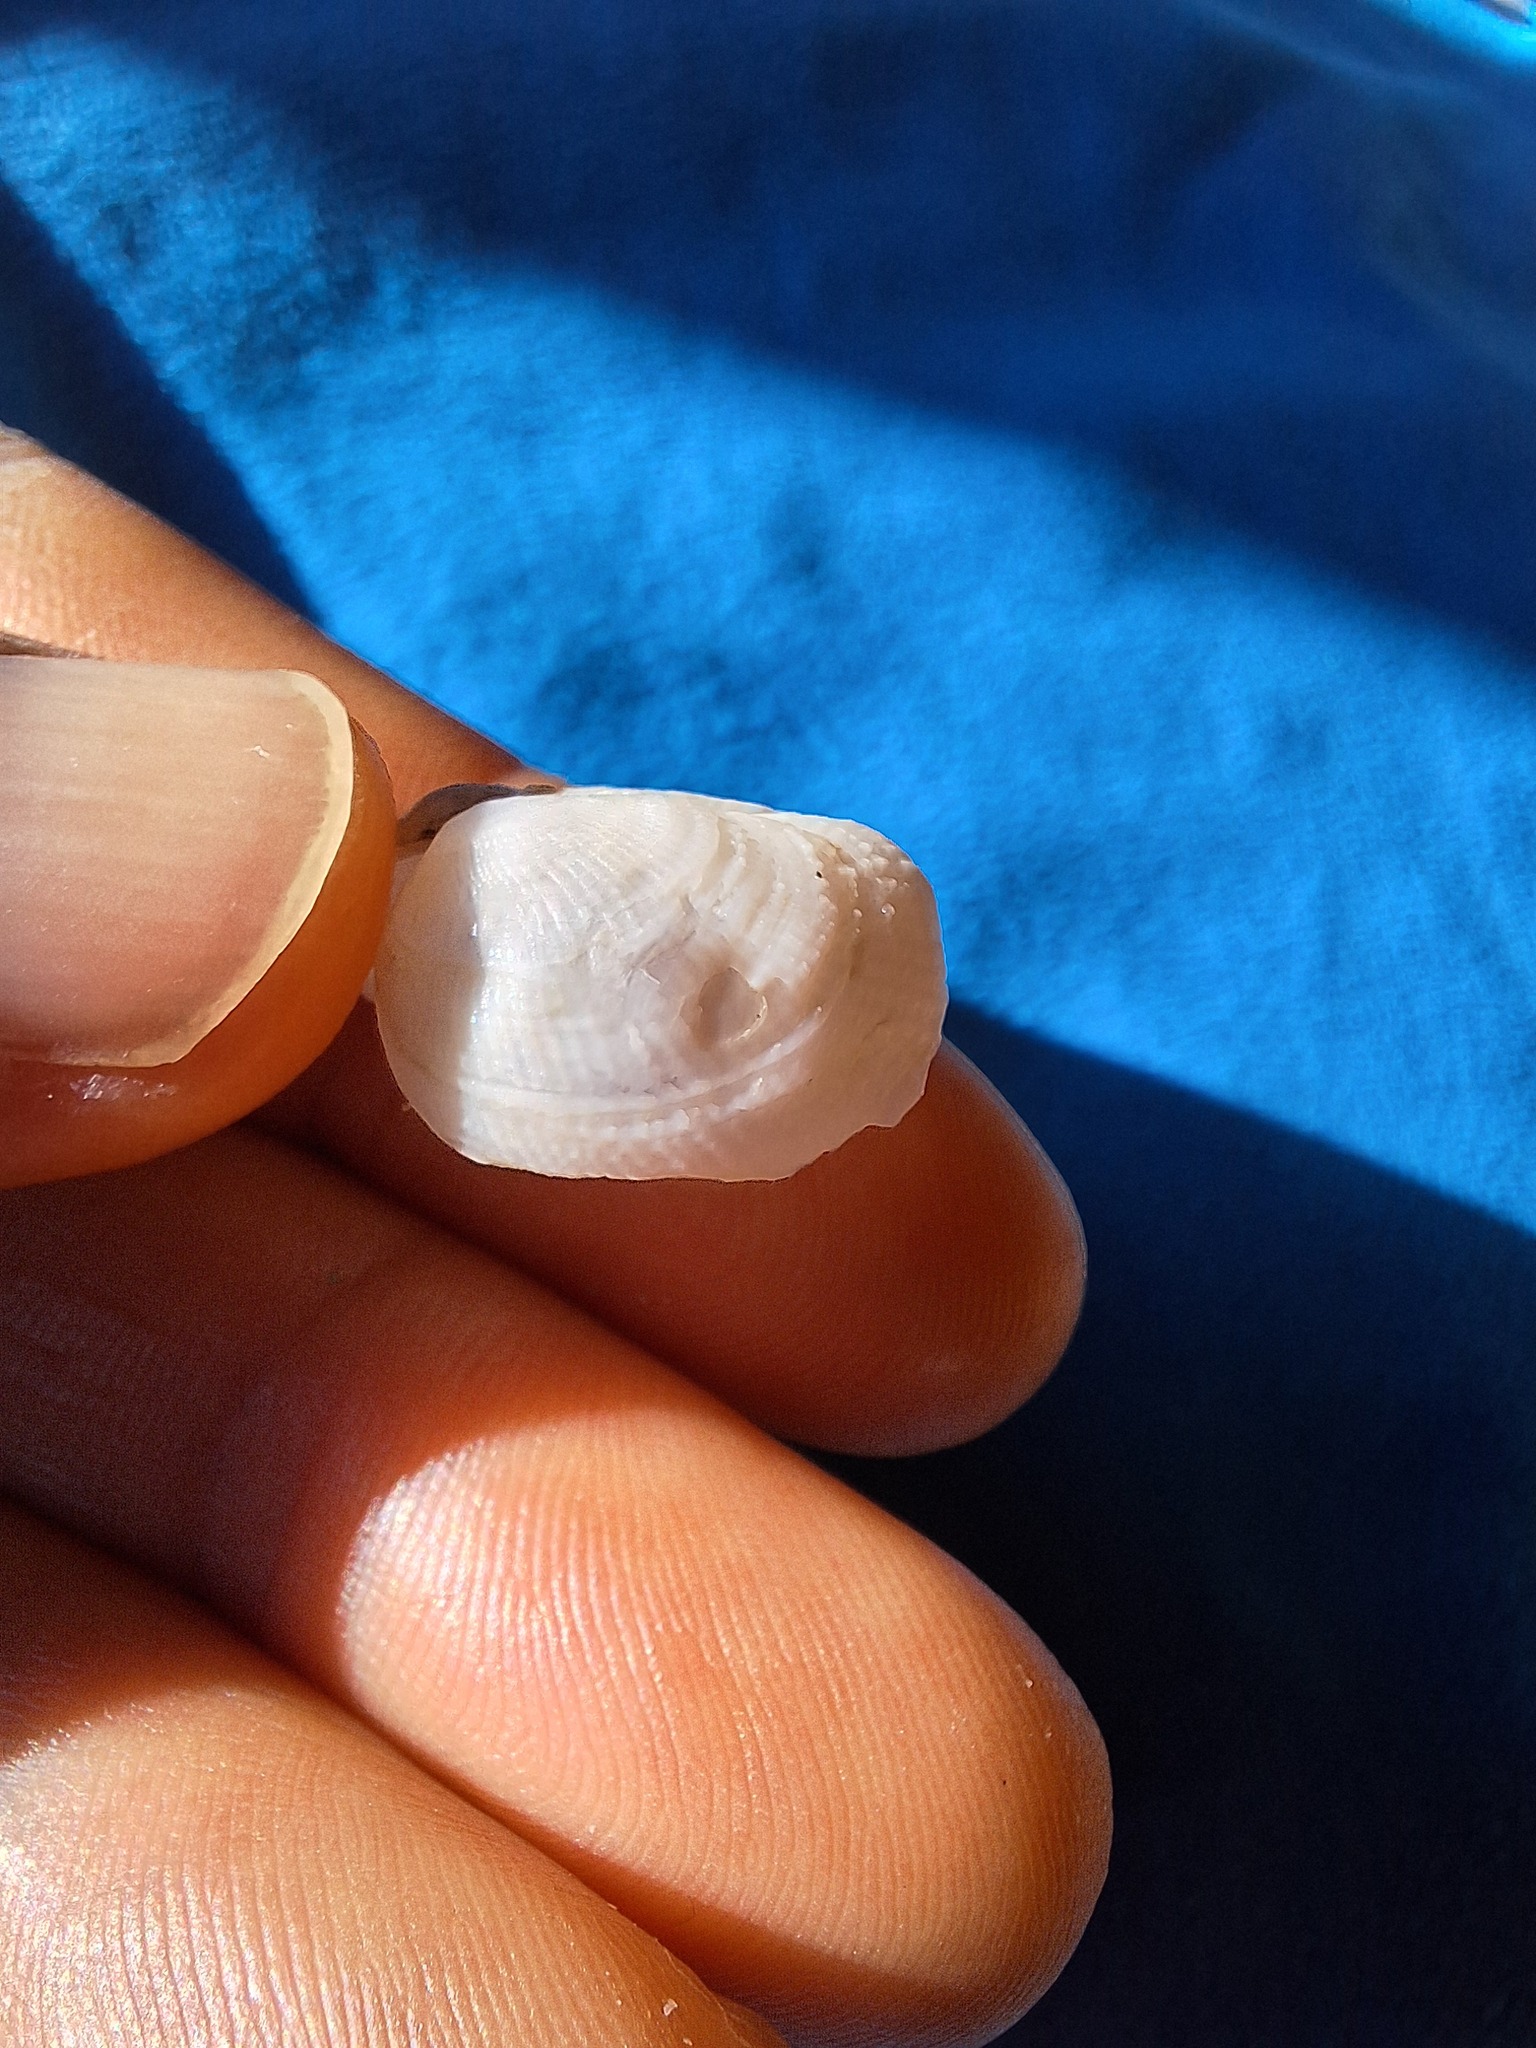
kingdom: Animalia
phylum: Mollusca
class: Bivalvia
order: Venerida
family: Veneridae
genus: Petricola
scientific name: Petricola lithophaga
